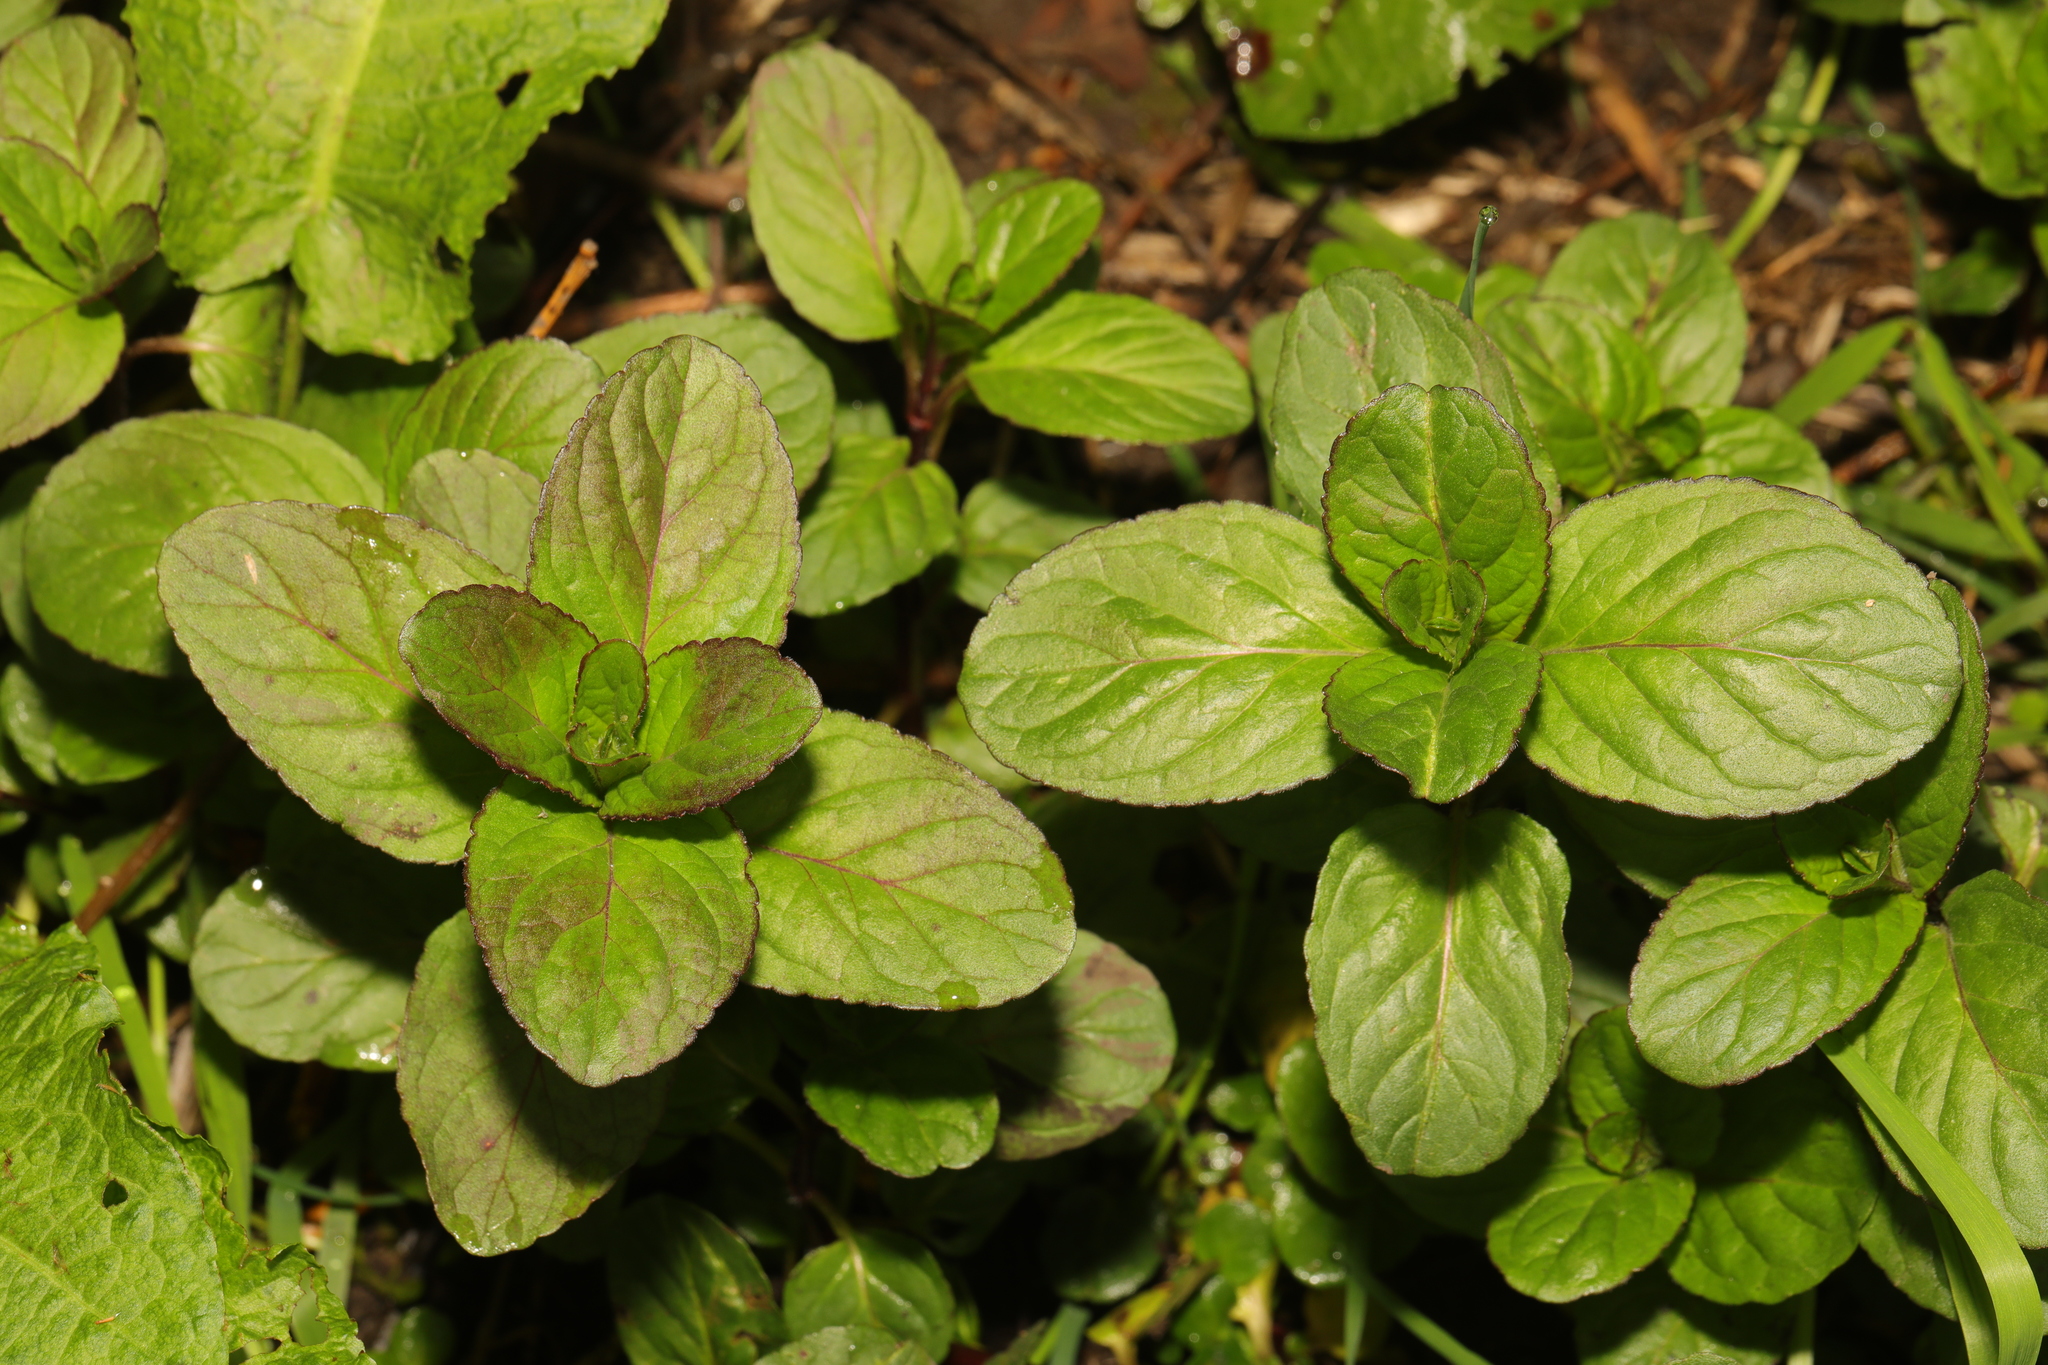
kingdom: Plantae
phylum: Tracheophyta
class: Magnoliopsida
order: Lamiales
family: Lamiaceae
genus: Mentha
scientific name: Mentha aquatica
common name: Water mint
